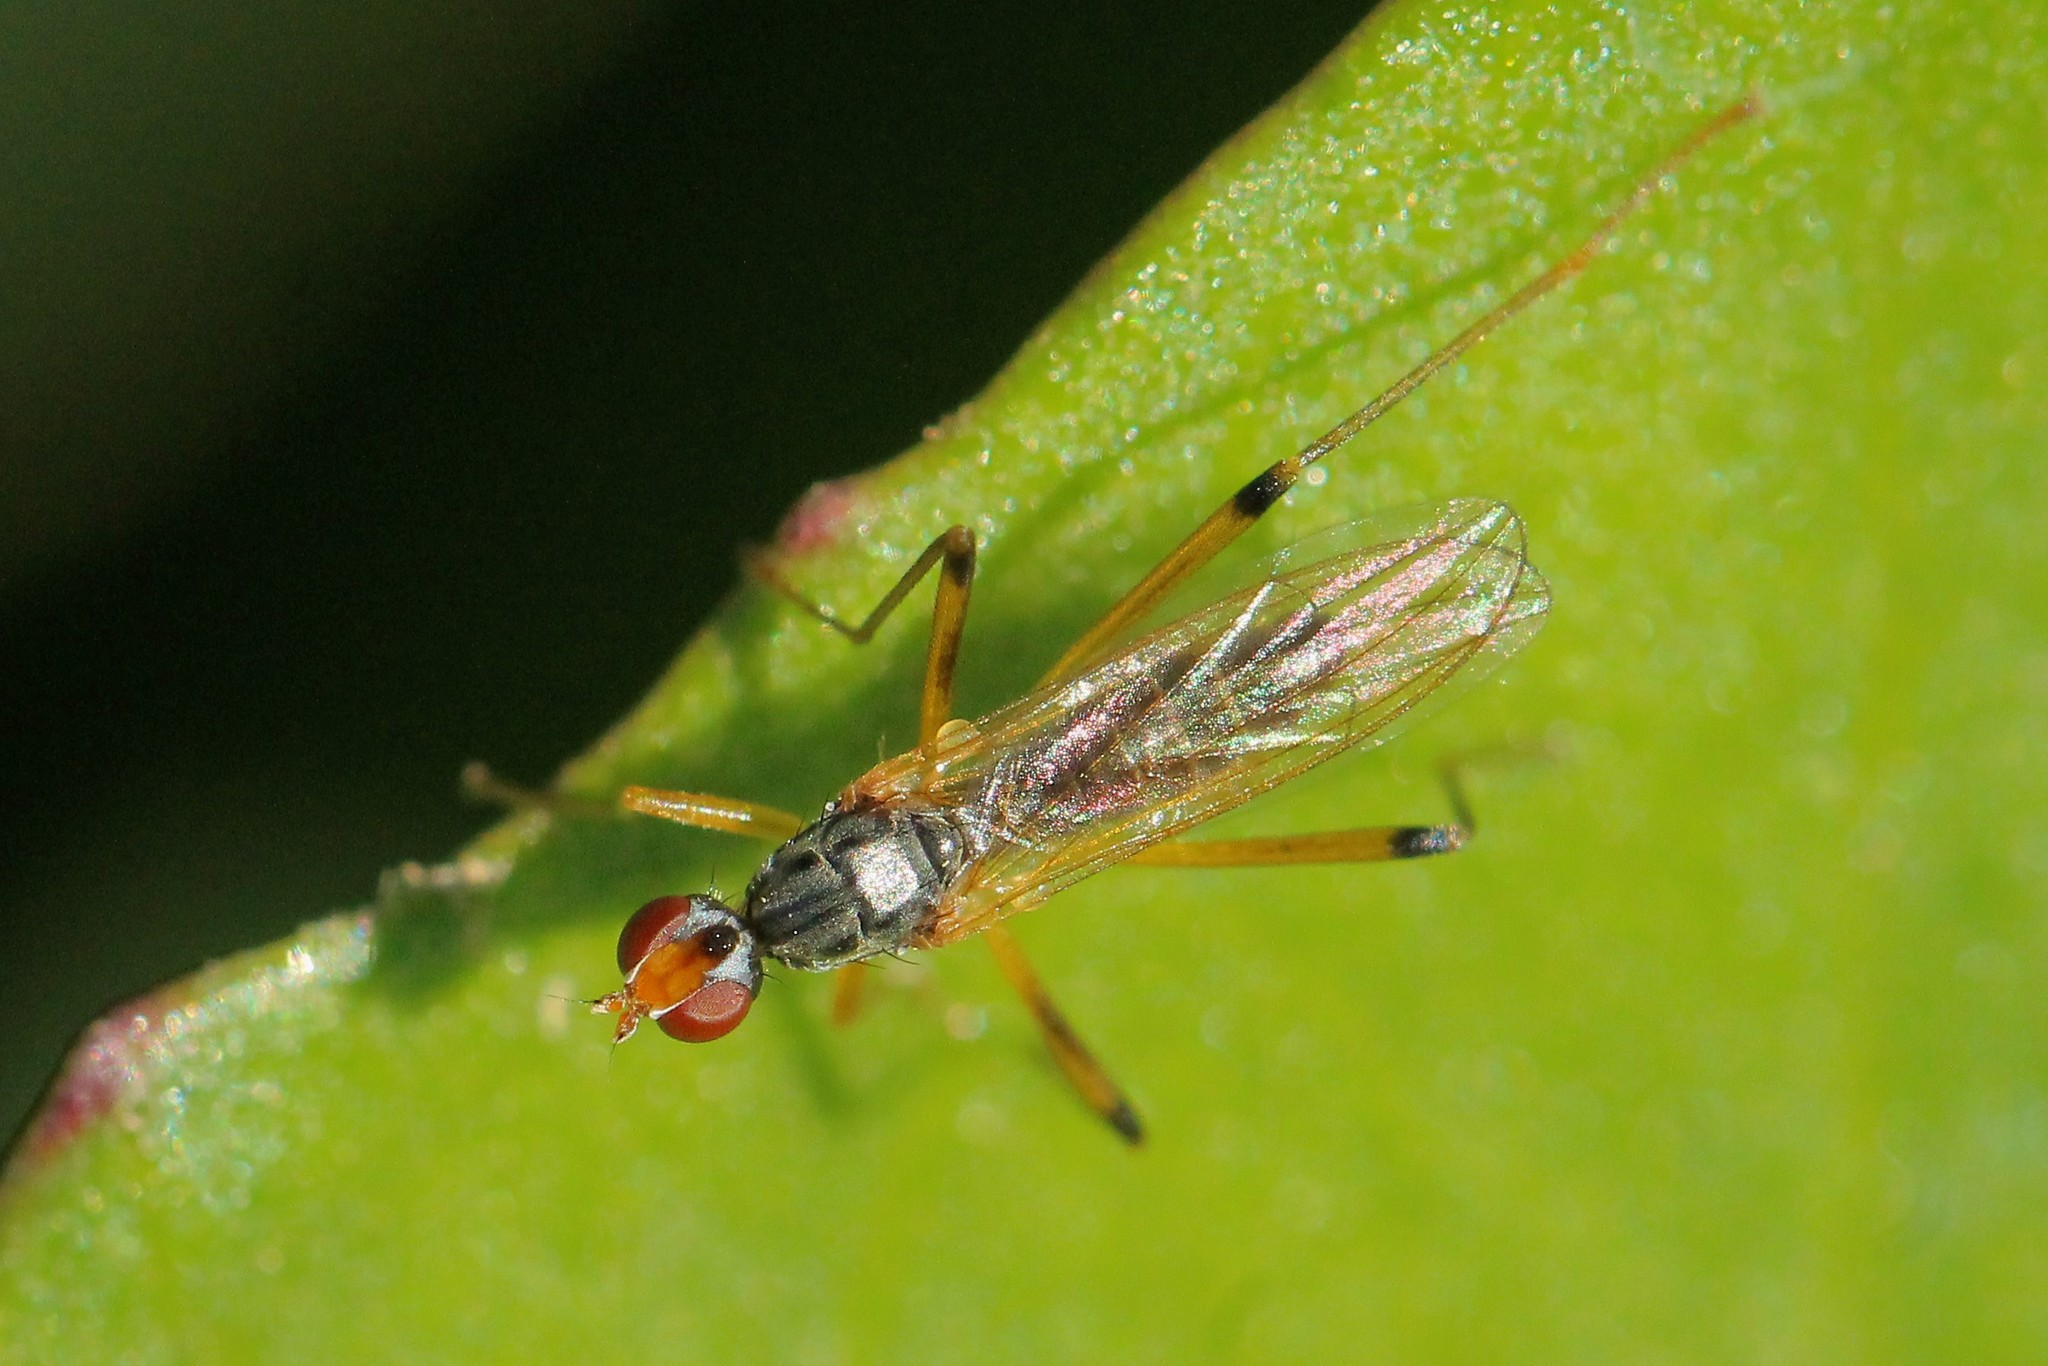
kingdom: Animalia
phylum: Arthropoda
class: Insecta
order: Diptera
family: Micropezidae
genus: Compsobata
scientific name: Compsobata cibaria
